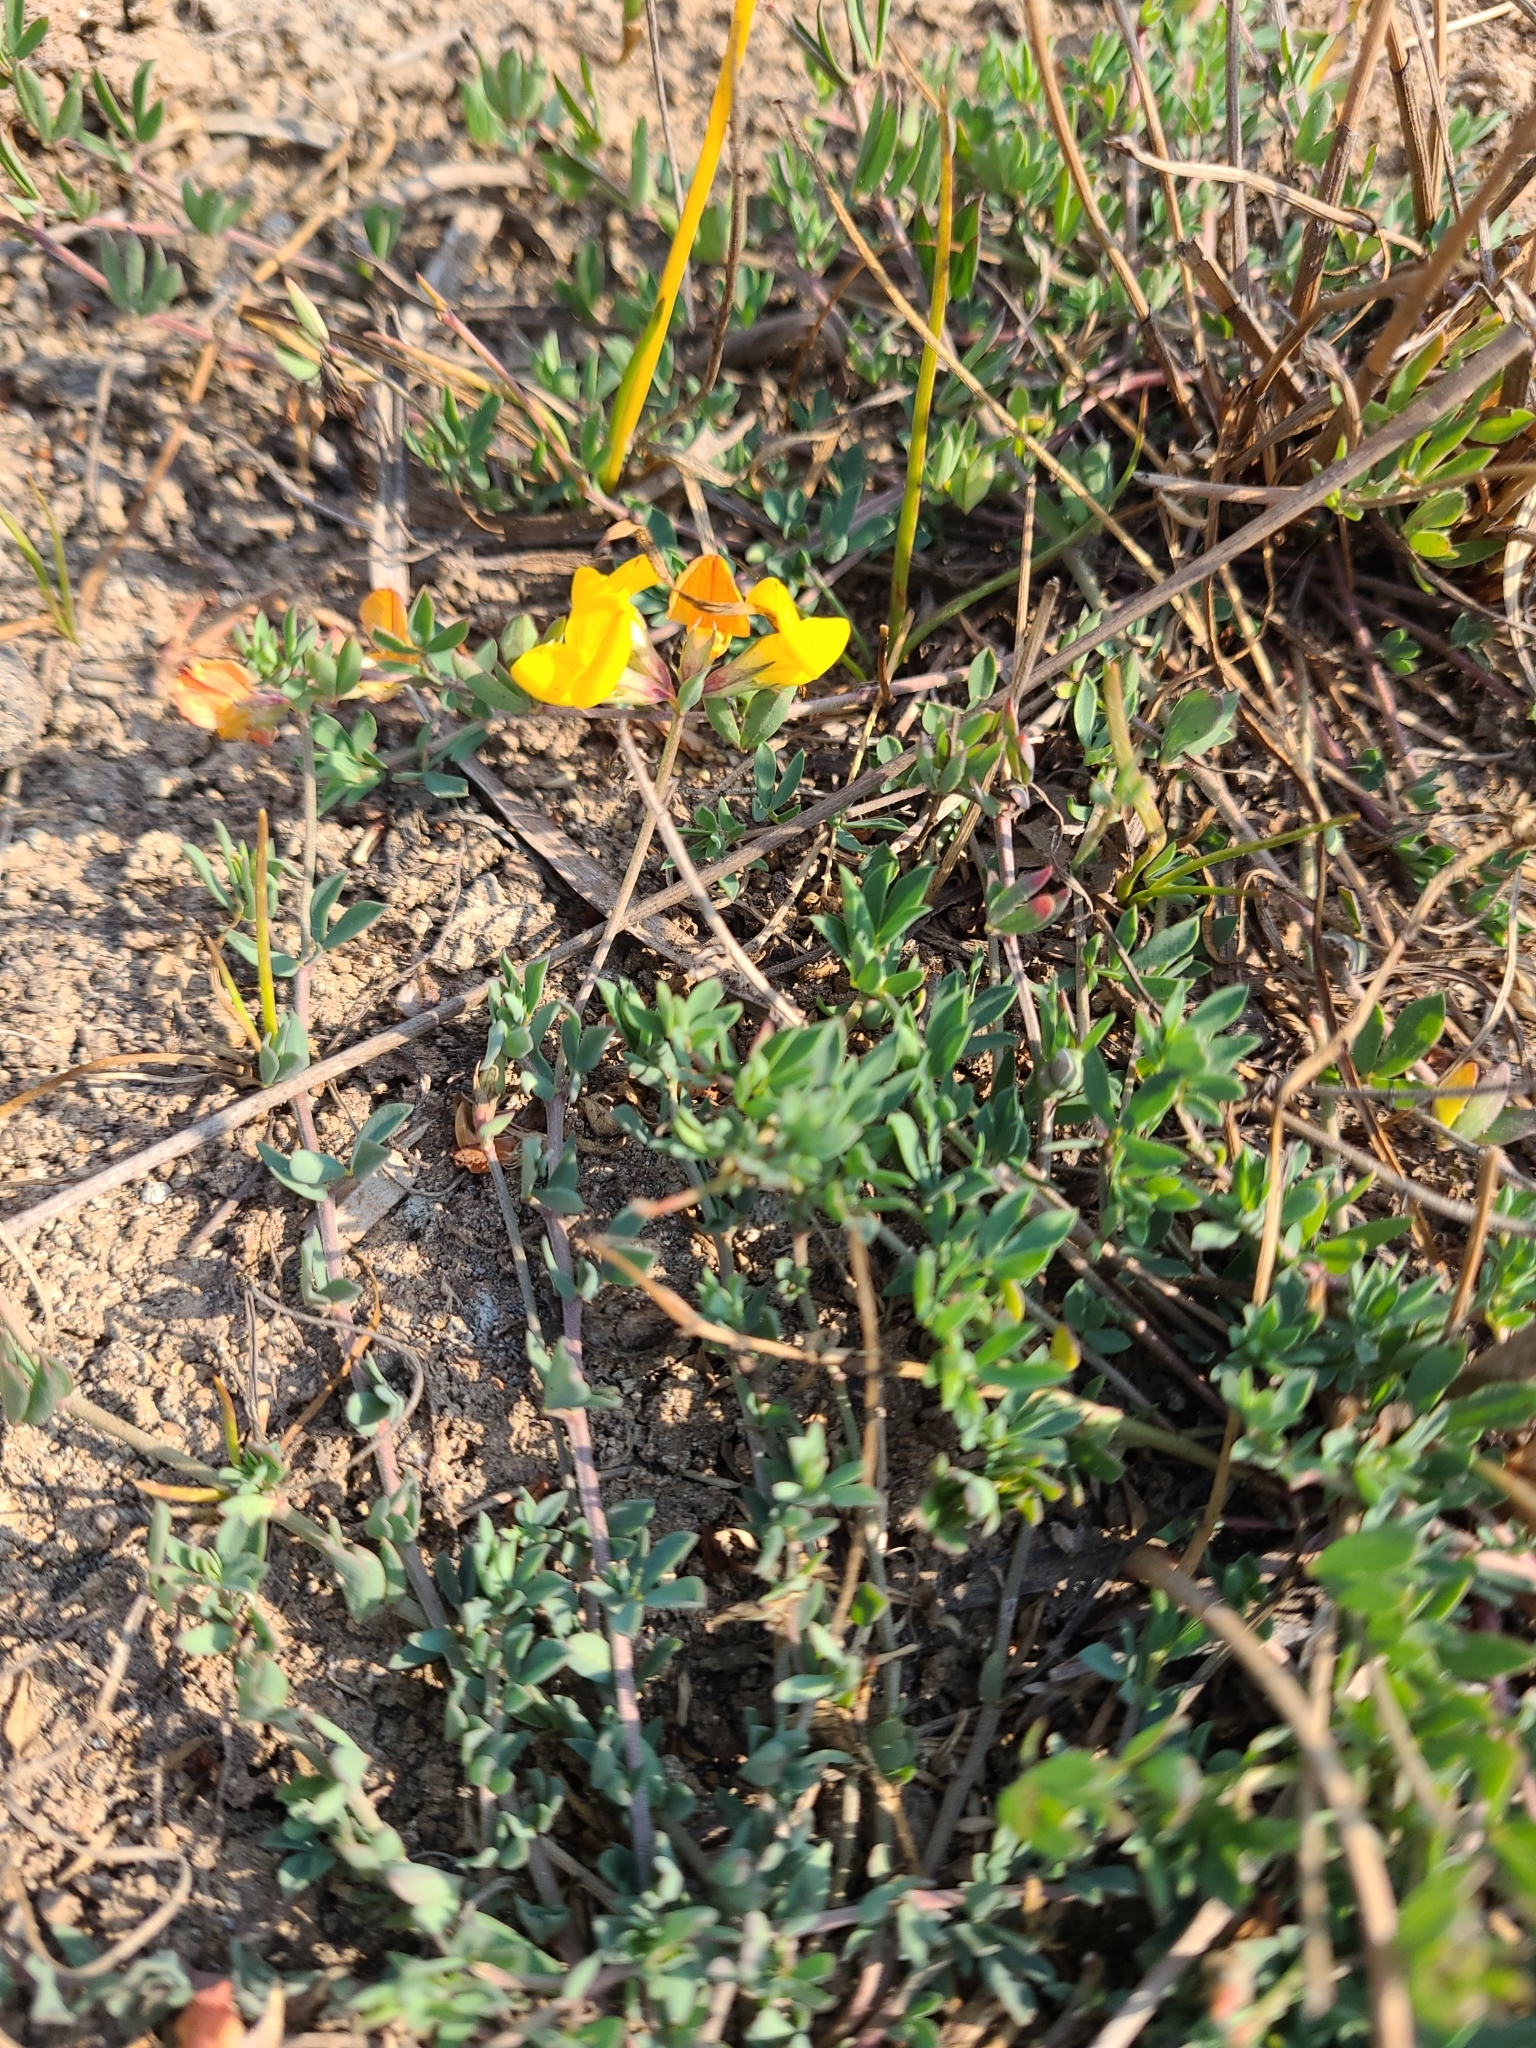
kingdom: Plantae
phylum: Tracheophyta
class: Magnoliopsida
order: Fabales
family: Fabaceae
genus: Lotus
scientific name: Lotus corniculatus
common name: Common bird's-foot-trefoil
